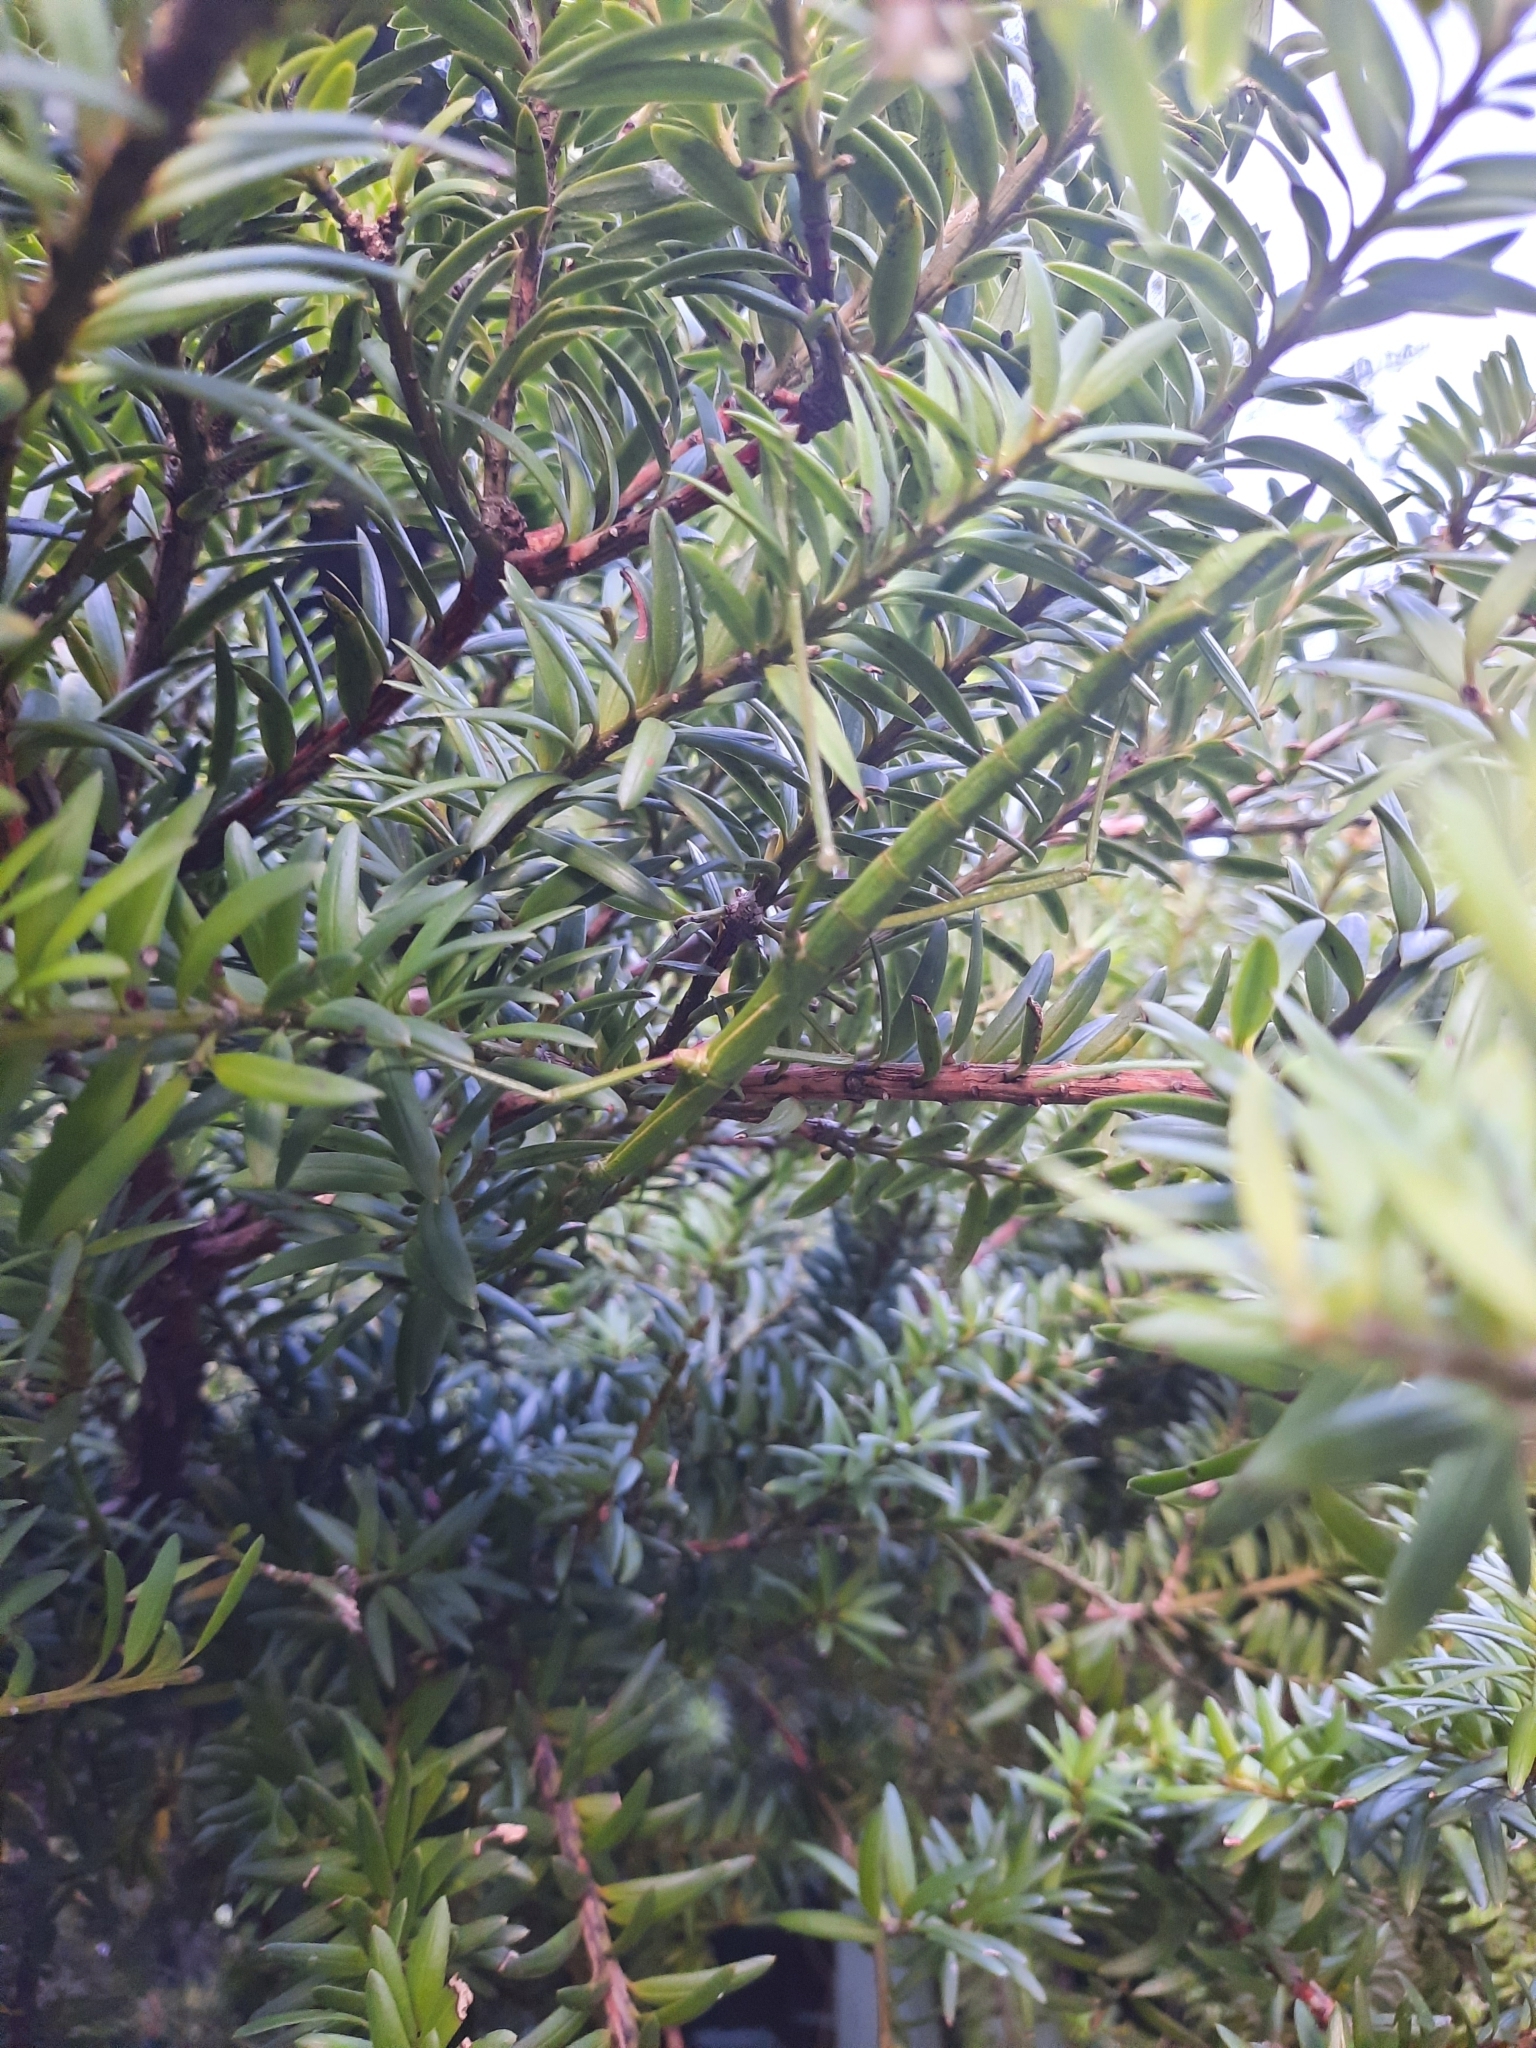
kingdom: Animalia
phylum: Arthropoda
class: Insecta
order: Phasmida
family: Phasmatidae
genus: Clitarchus
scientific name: Clitarchus hookeri
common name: Smooth stick insect
